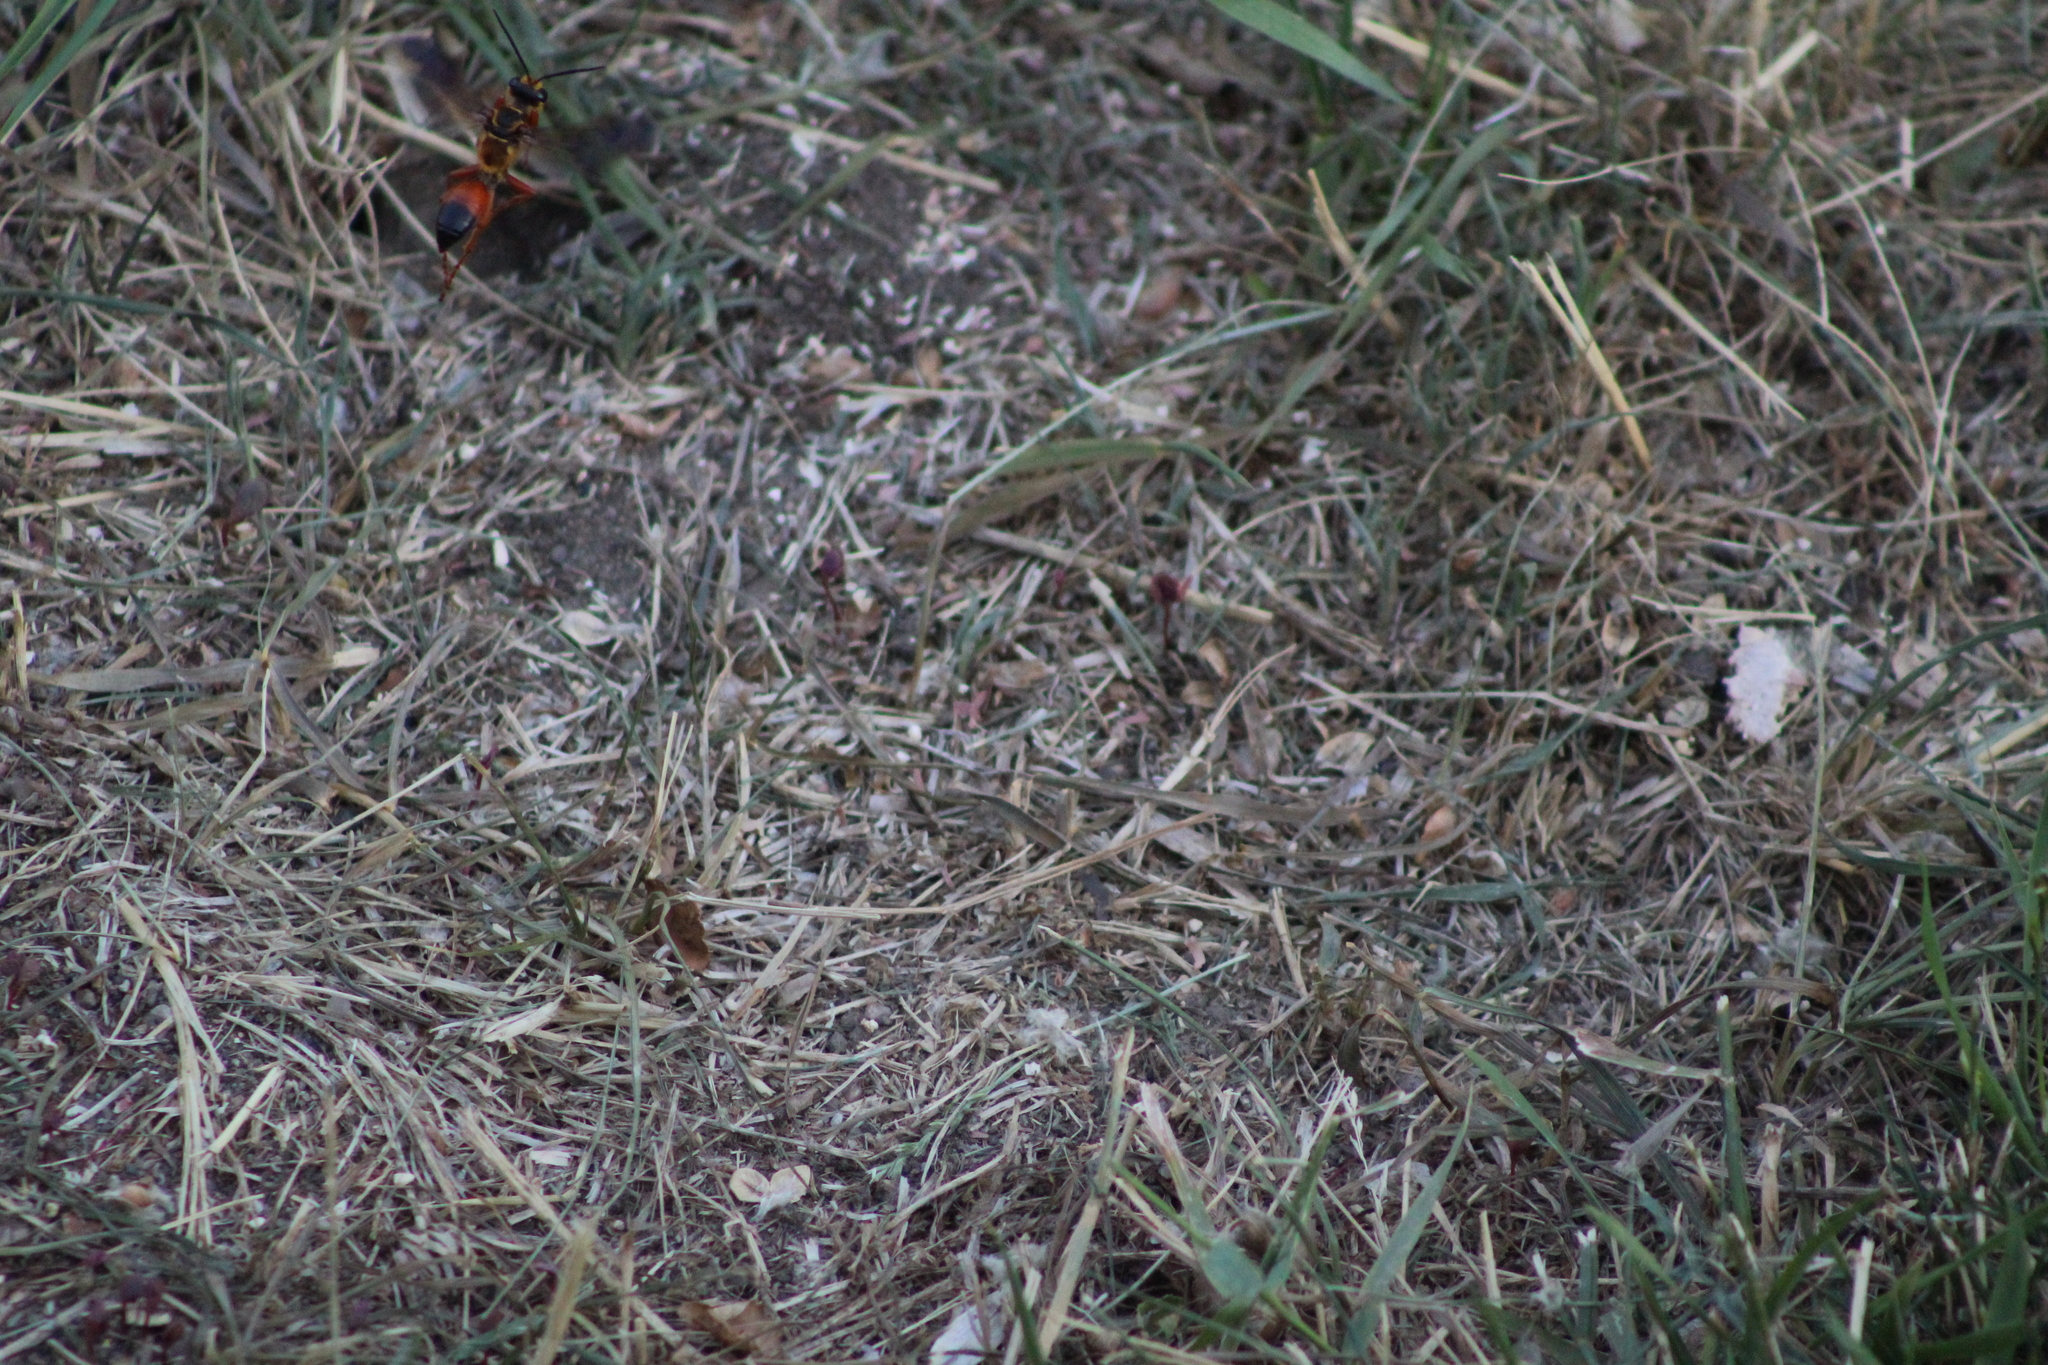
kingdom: Animalia
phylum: Arthropoda
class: Insecta
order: Hymenoptera
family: Sphecidae
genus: Sphex
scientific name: Sphex ichneumoneus
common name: Great golden digger wasp
